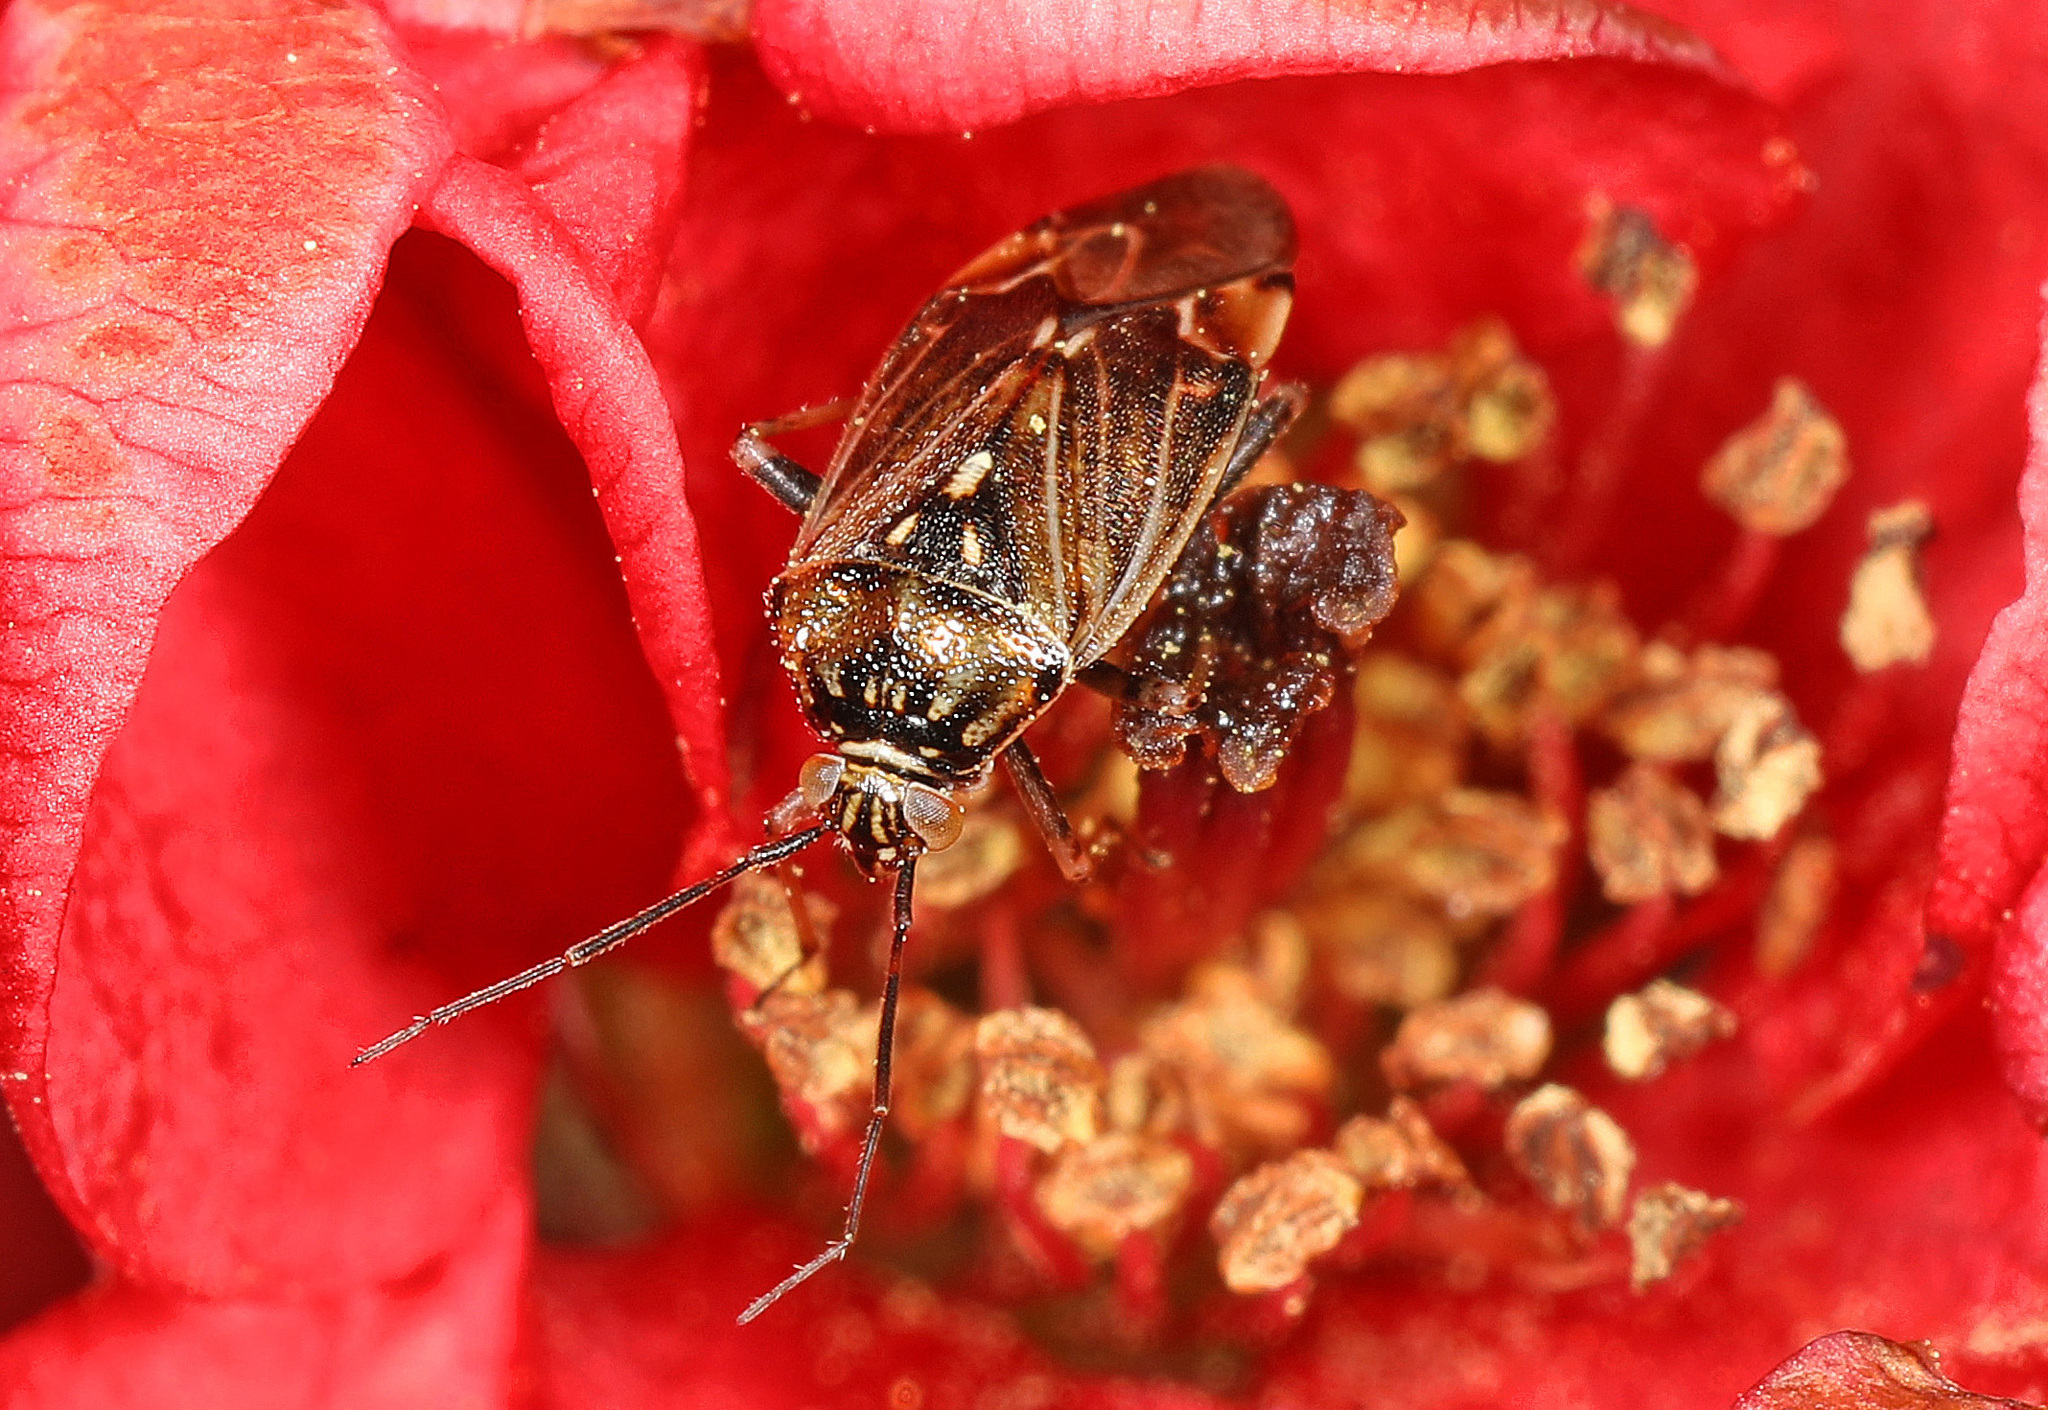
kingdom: Animalia
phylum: Arthropoda
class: Insecta
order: Hemiptera
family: Miridae
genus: Lygus
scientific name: Lygus lineolaris
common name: North american tarnished plant bug
